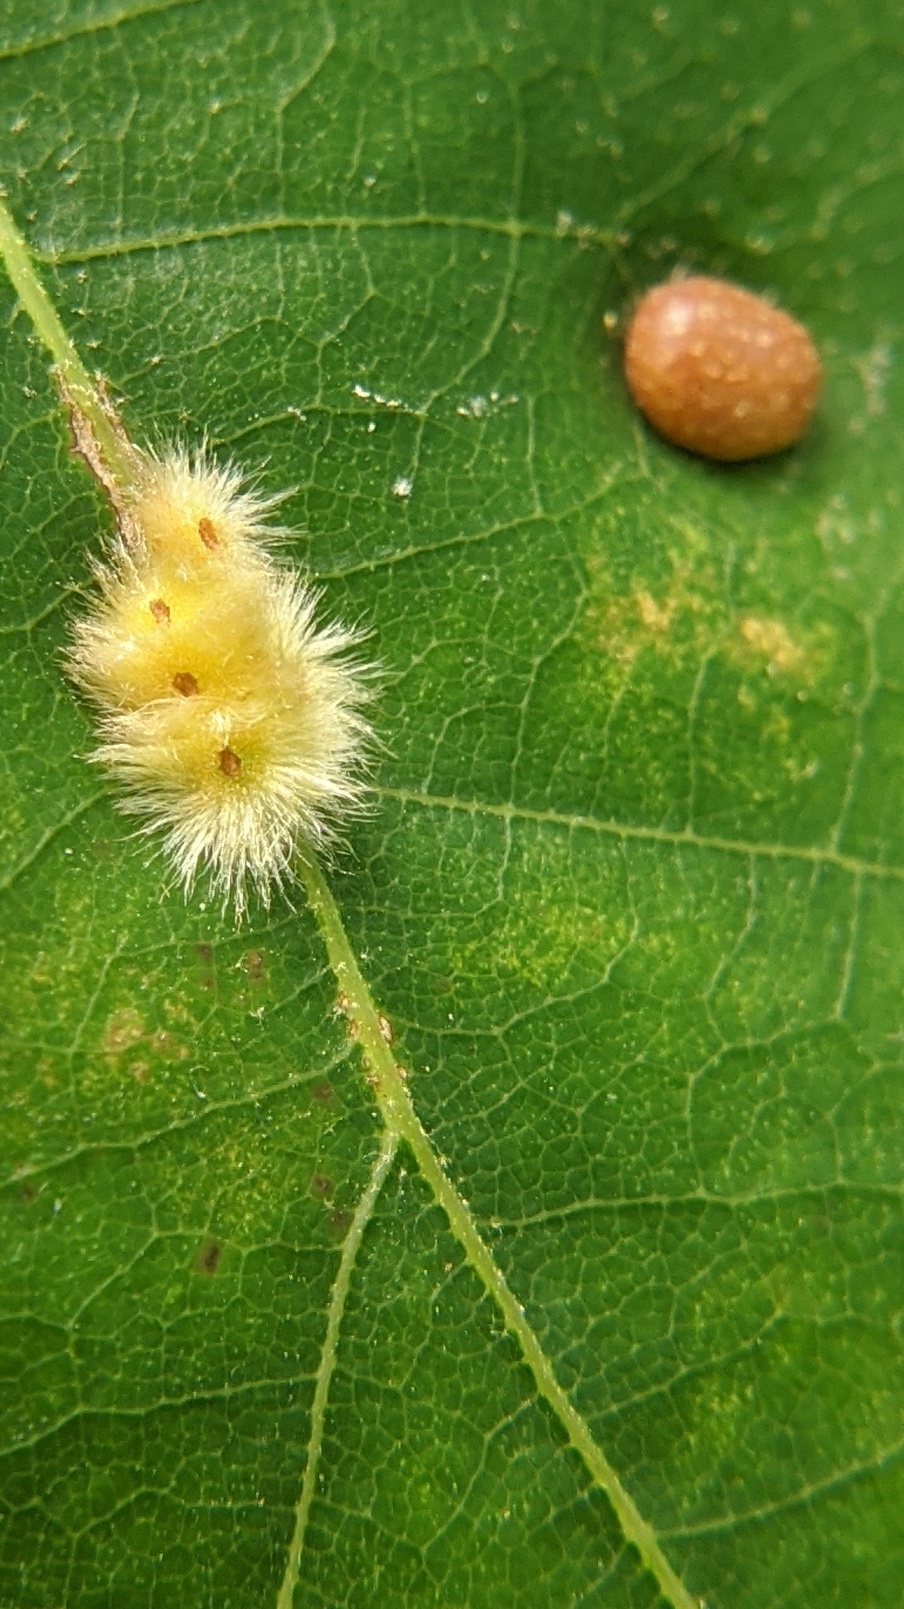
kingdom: Animalia
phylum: Arthropoda
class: Insecta
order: Hymenoptera
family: Cynipidae
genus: Callirhytis
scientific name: Callirhytis
